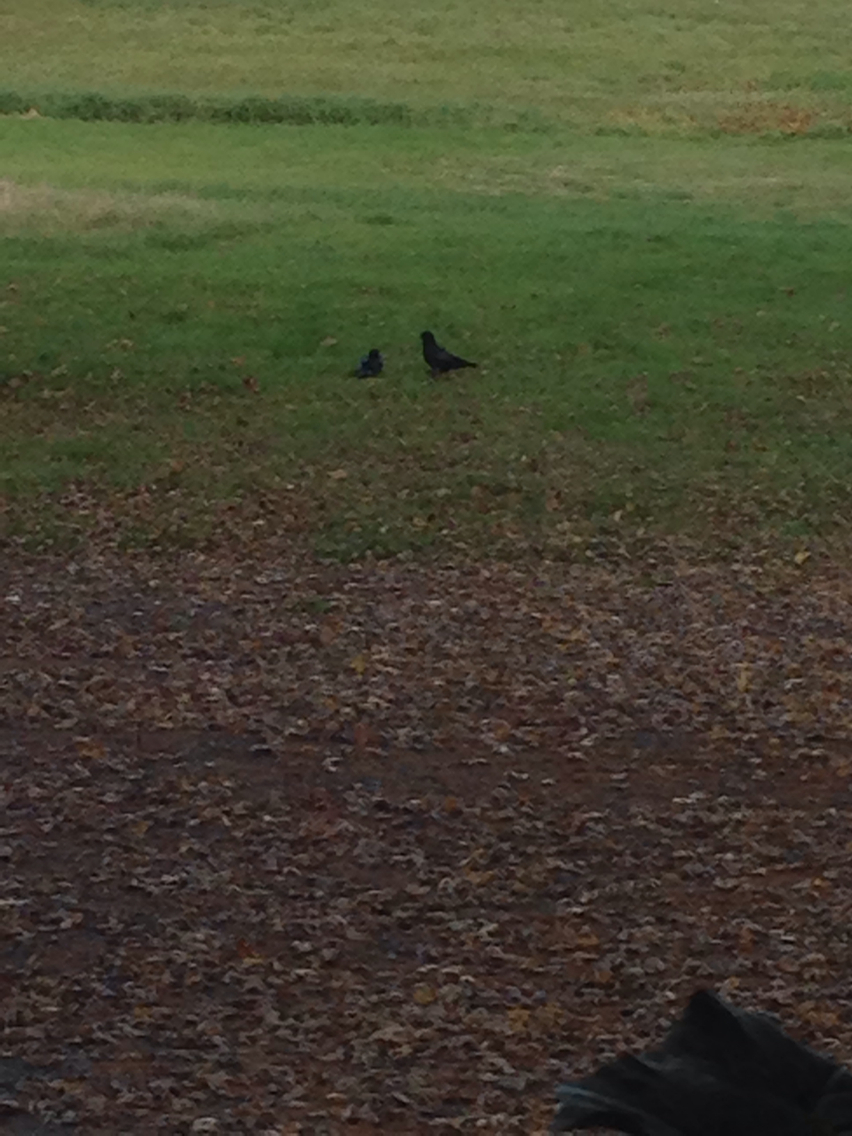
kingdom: Animalia
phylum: Chordata
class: Aves
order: Passeriformes
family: Corvidae
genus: Corvus
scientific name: Corvus brachyrhynchos
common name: American crow
